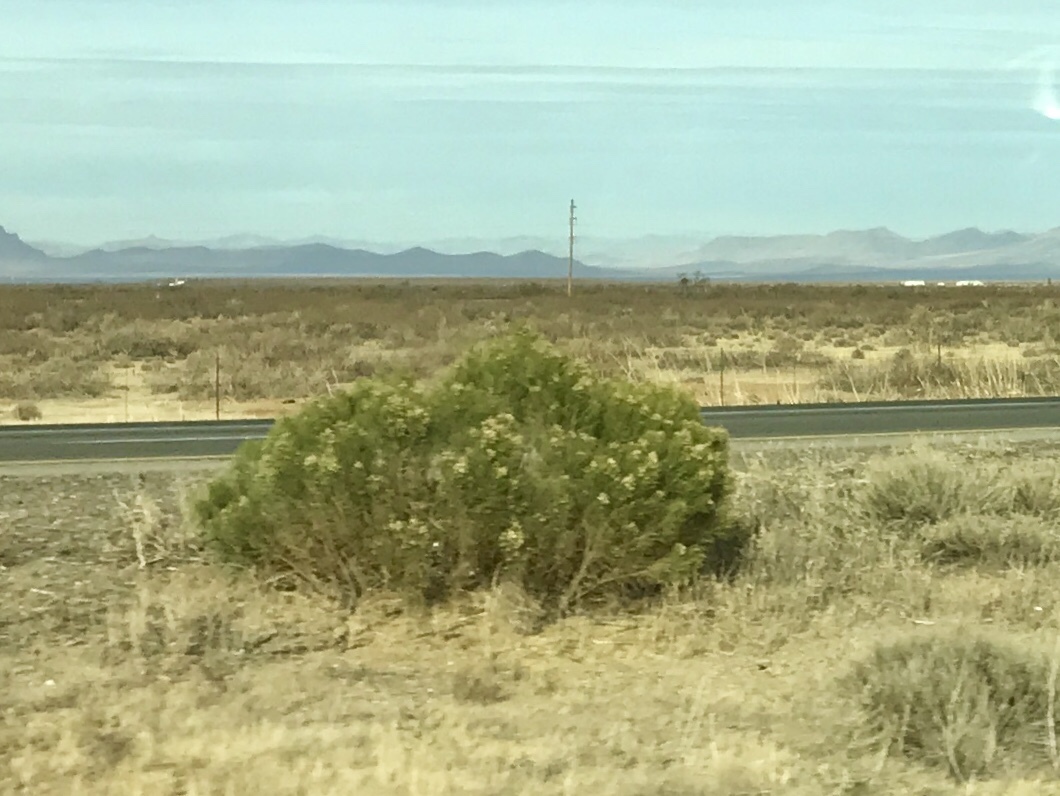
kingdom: Plantae
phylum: Tracheophyta
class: Magnoliopsida
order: Asterales
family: Asteraceae
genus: Baccharis
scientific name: Baccharis sarothroides
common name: Desert-broom
